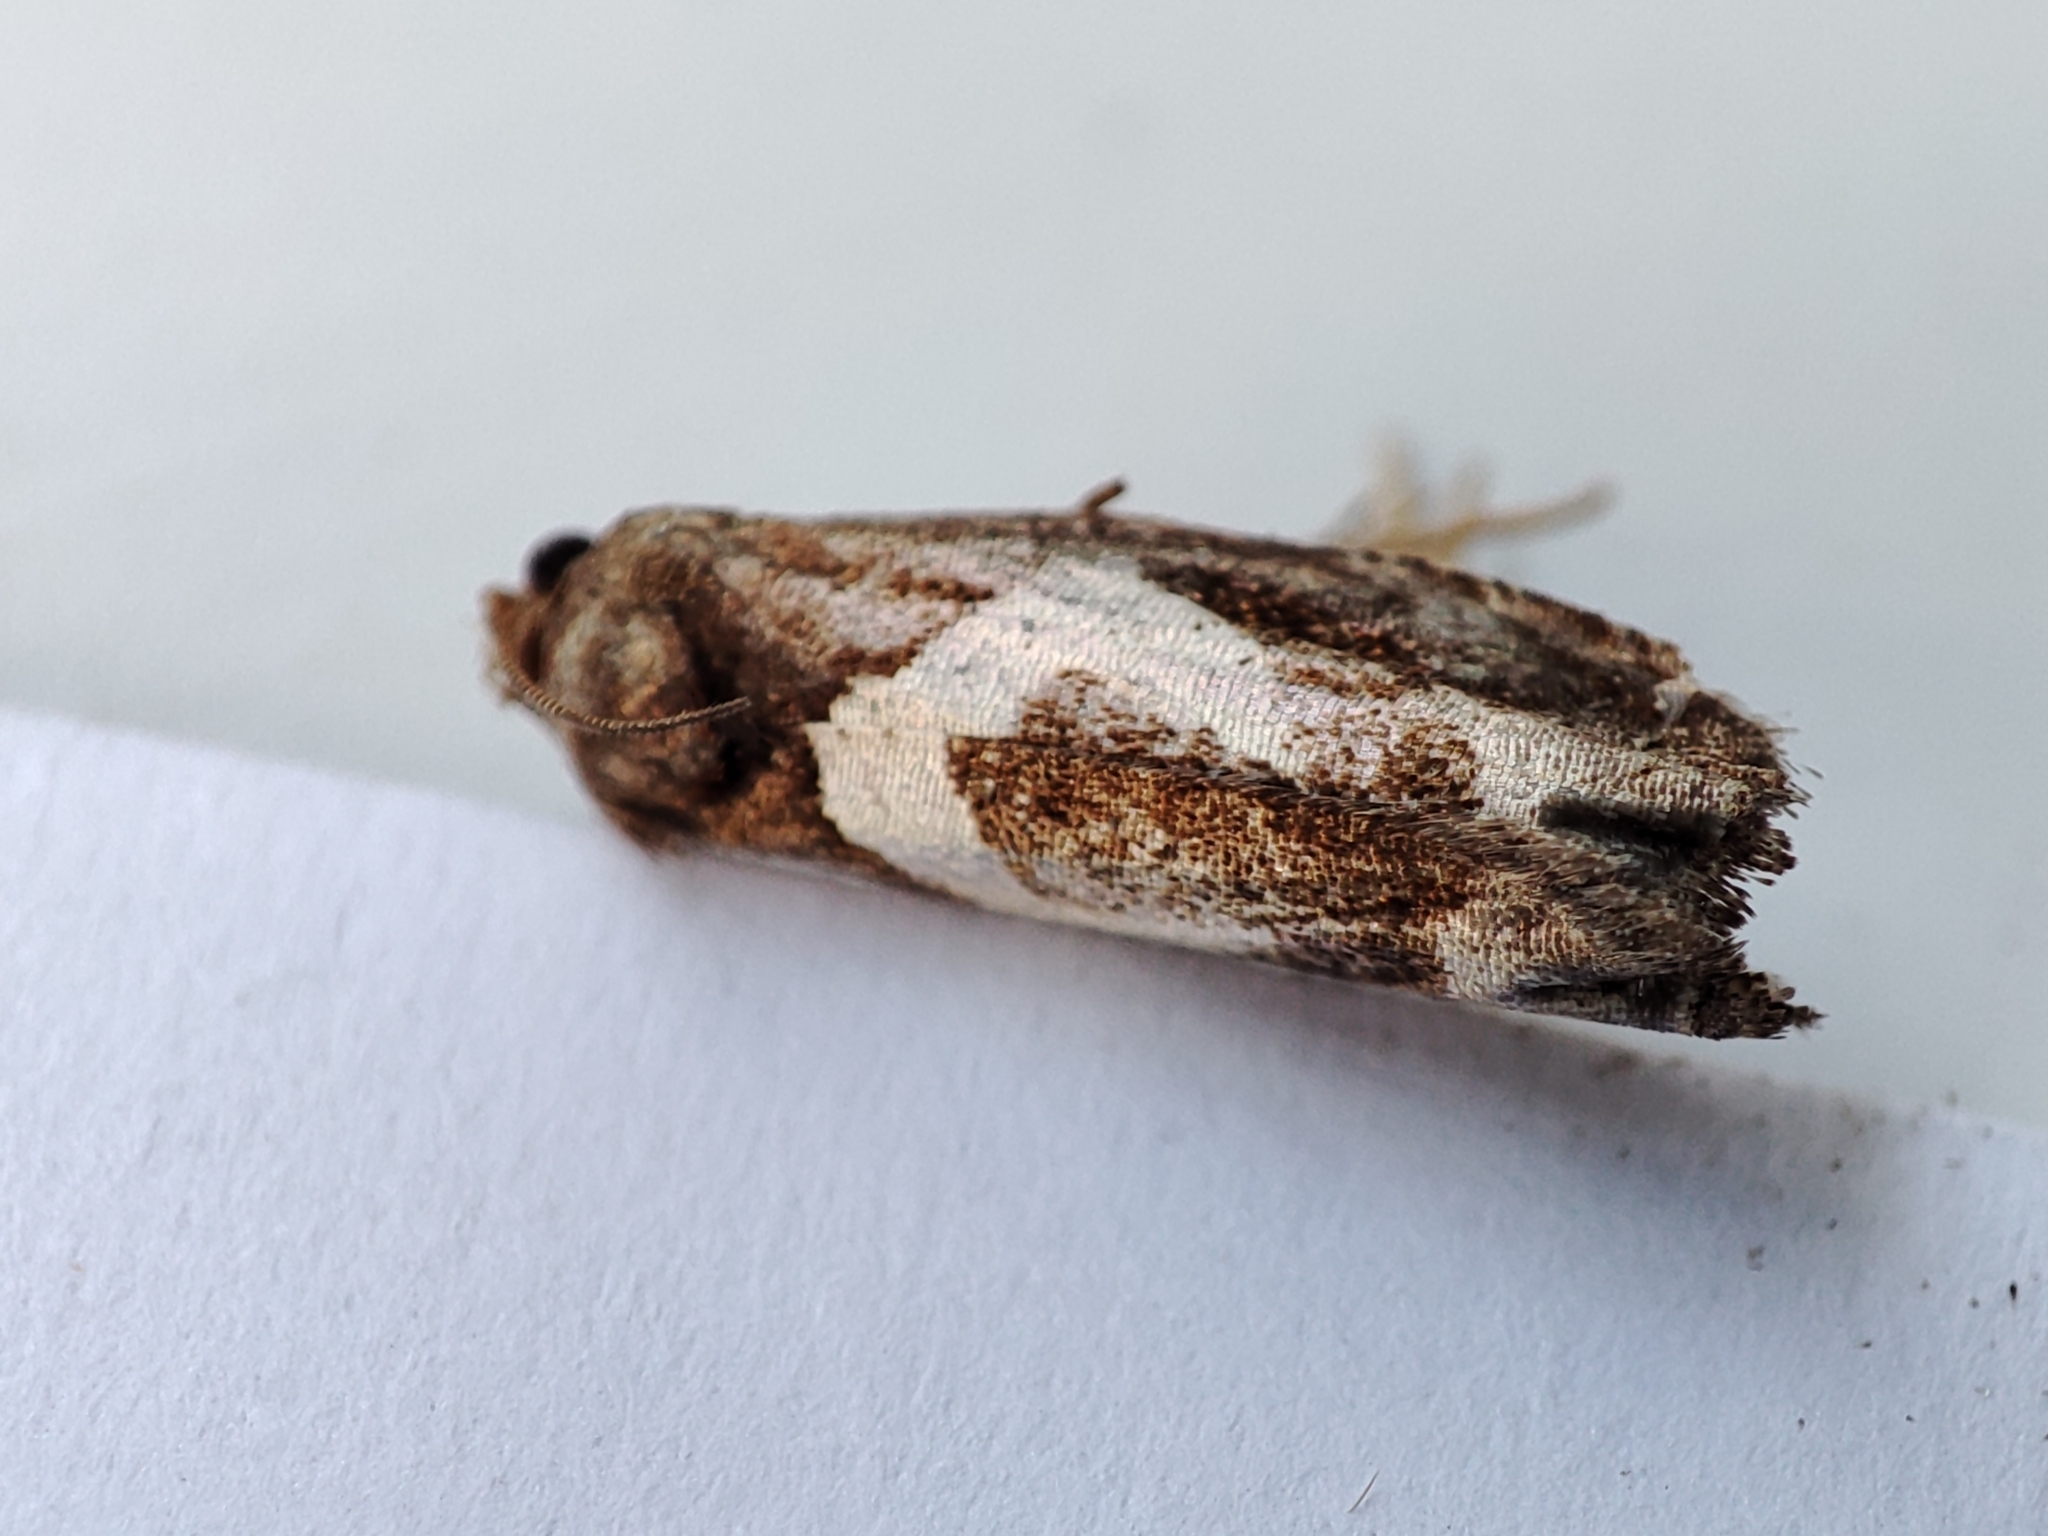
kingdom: Animalia
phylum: Arthropoda
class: Insecta
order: Lepidoptera
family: Tortricidae
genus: Epiblema
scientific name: Epiblema foenella
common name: White-foot bell
